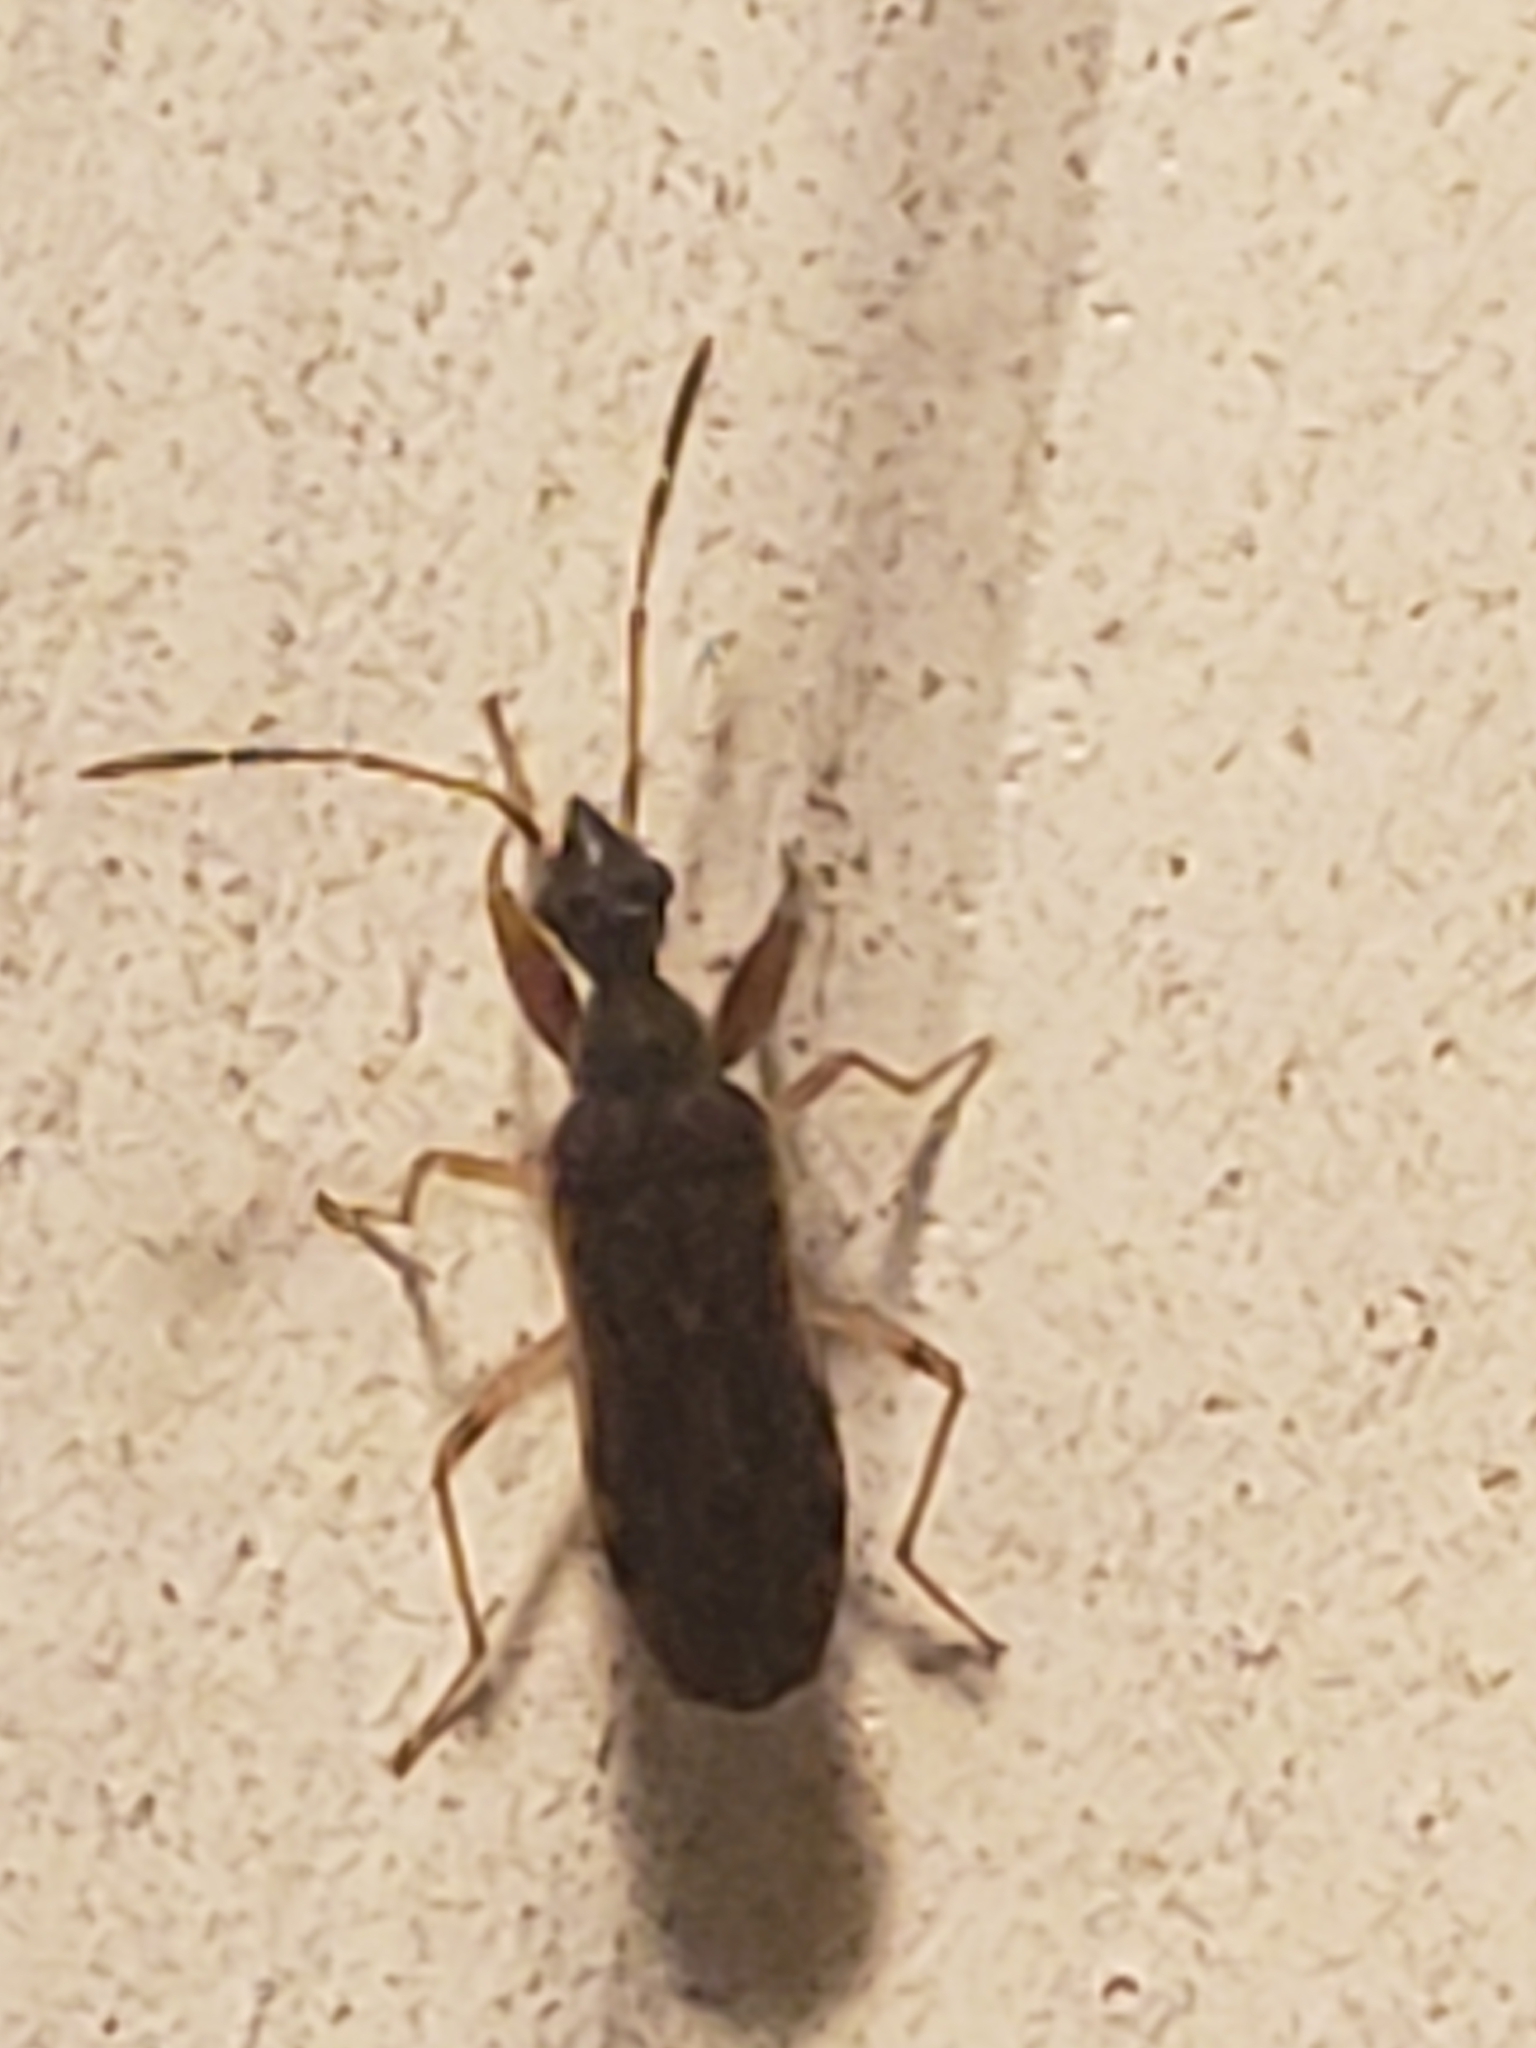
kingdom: Animalia
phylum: Arthropoda
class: Insecta
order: Hemiptera
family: Rhyparochromidae
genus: Heraeus
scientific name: Heraeus plebejus
